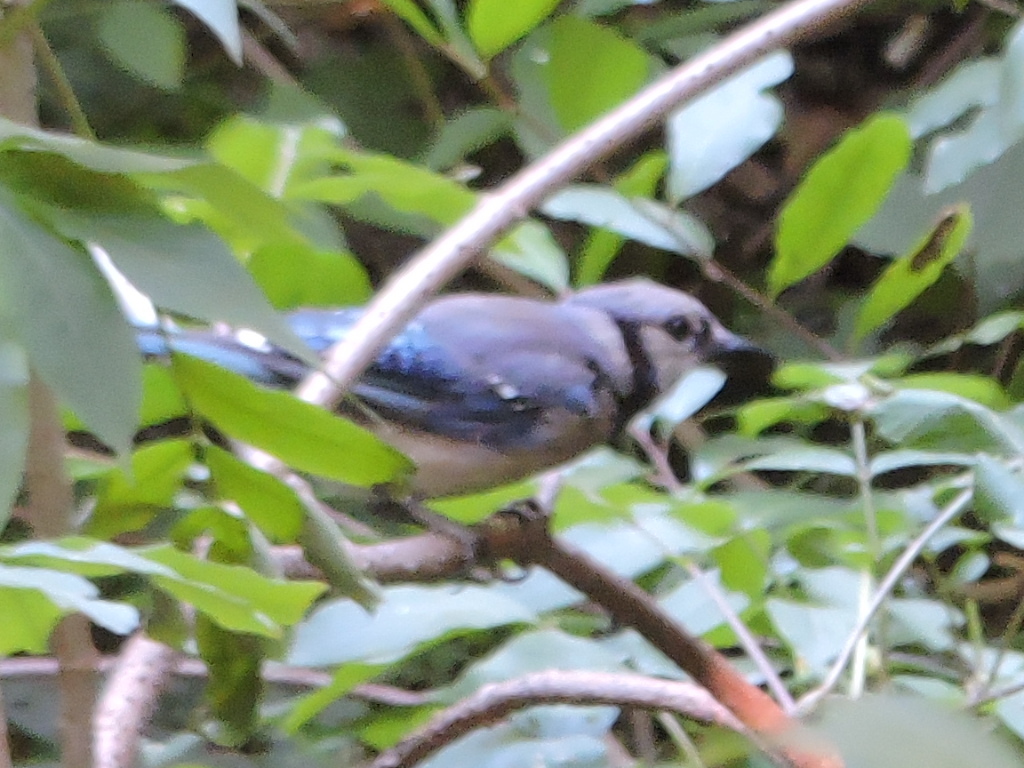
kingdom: Animalia
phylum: Chordata
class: Aves
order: Passeriformes
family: Corvidae
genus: Cyanocitta
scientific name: Cyanocitta cristata
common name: Blue jay
